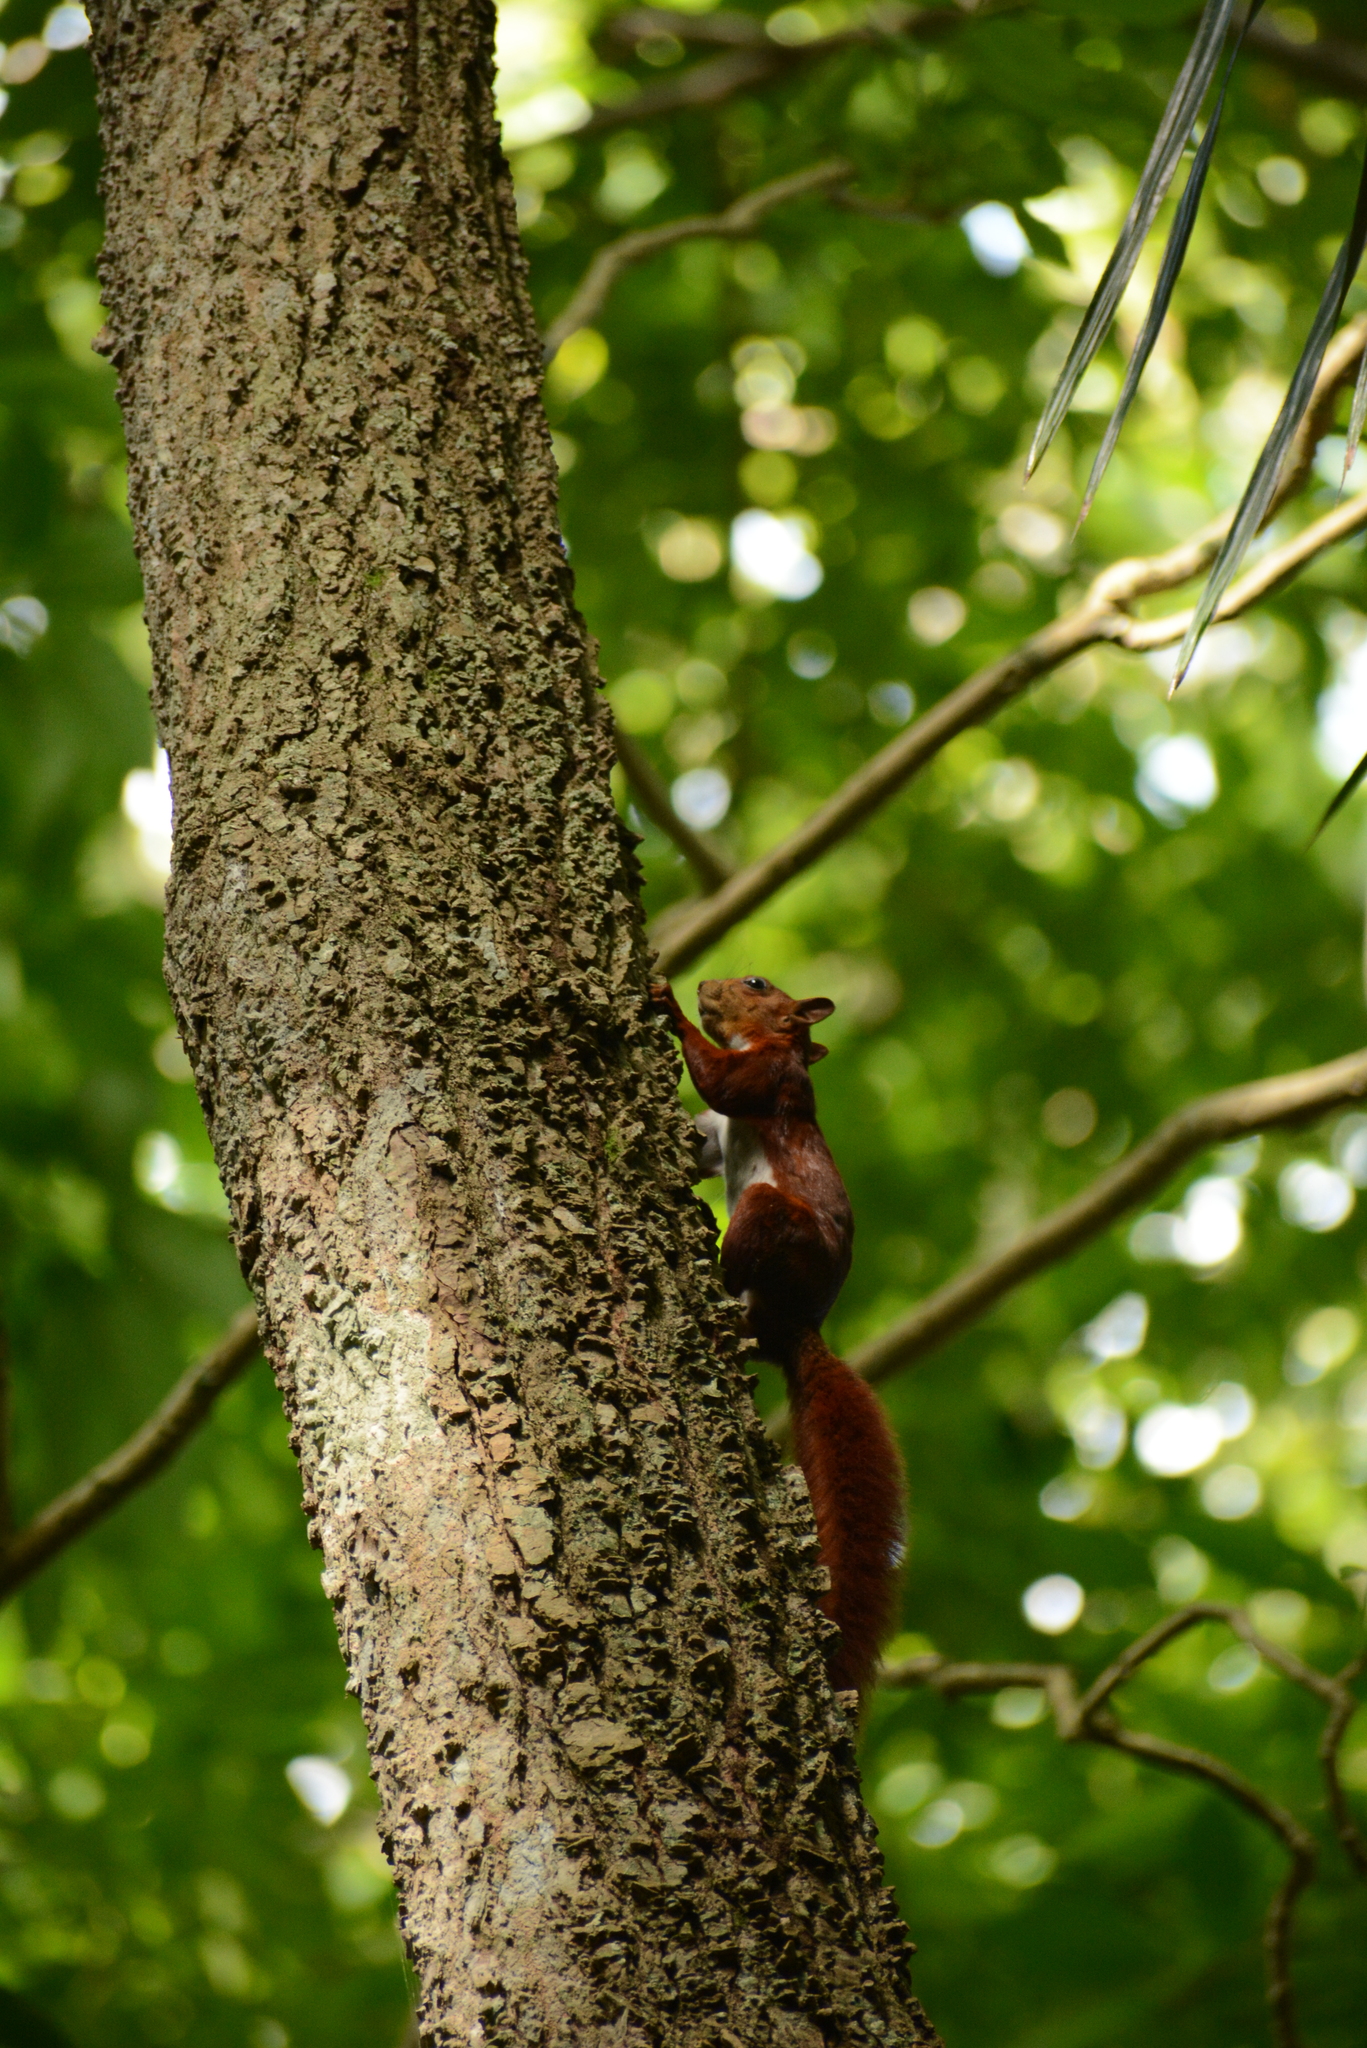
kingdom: Animalia
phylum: Chordata
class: Mammalia
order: Rodentia
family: Sciuridae
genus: Sciurus
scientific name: Sciurus granatensis
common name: Red-tailed squirrel
